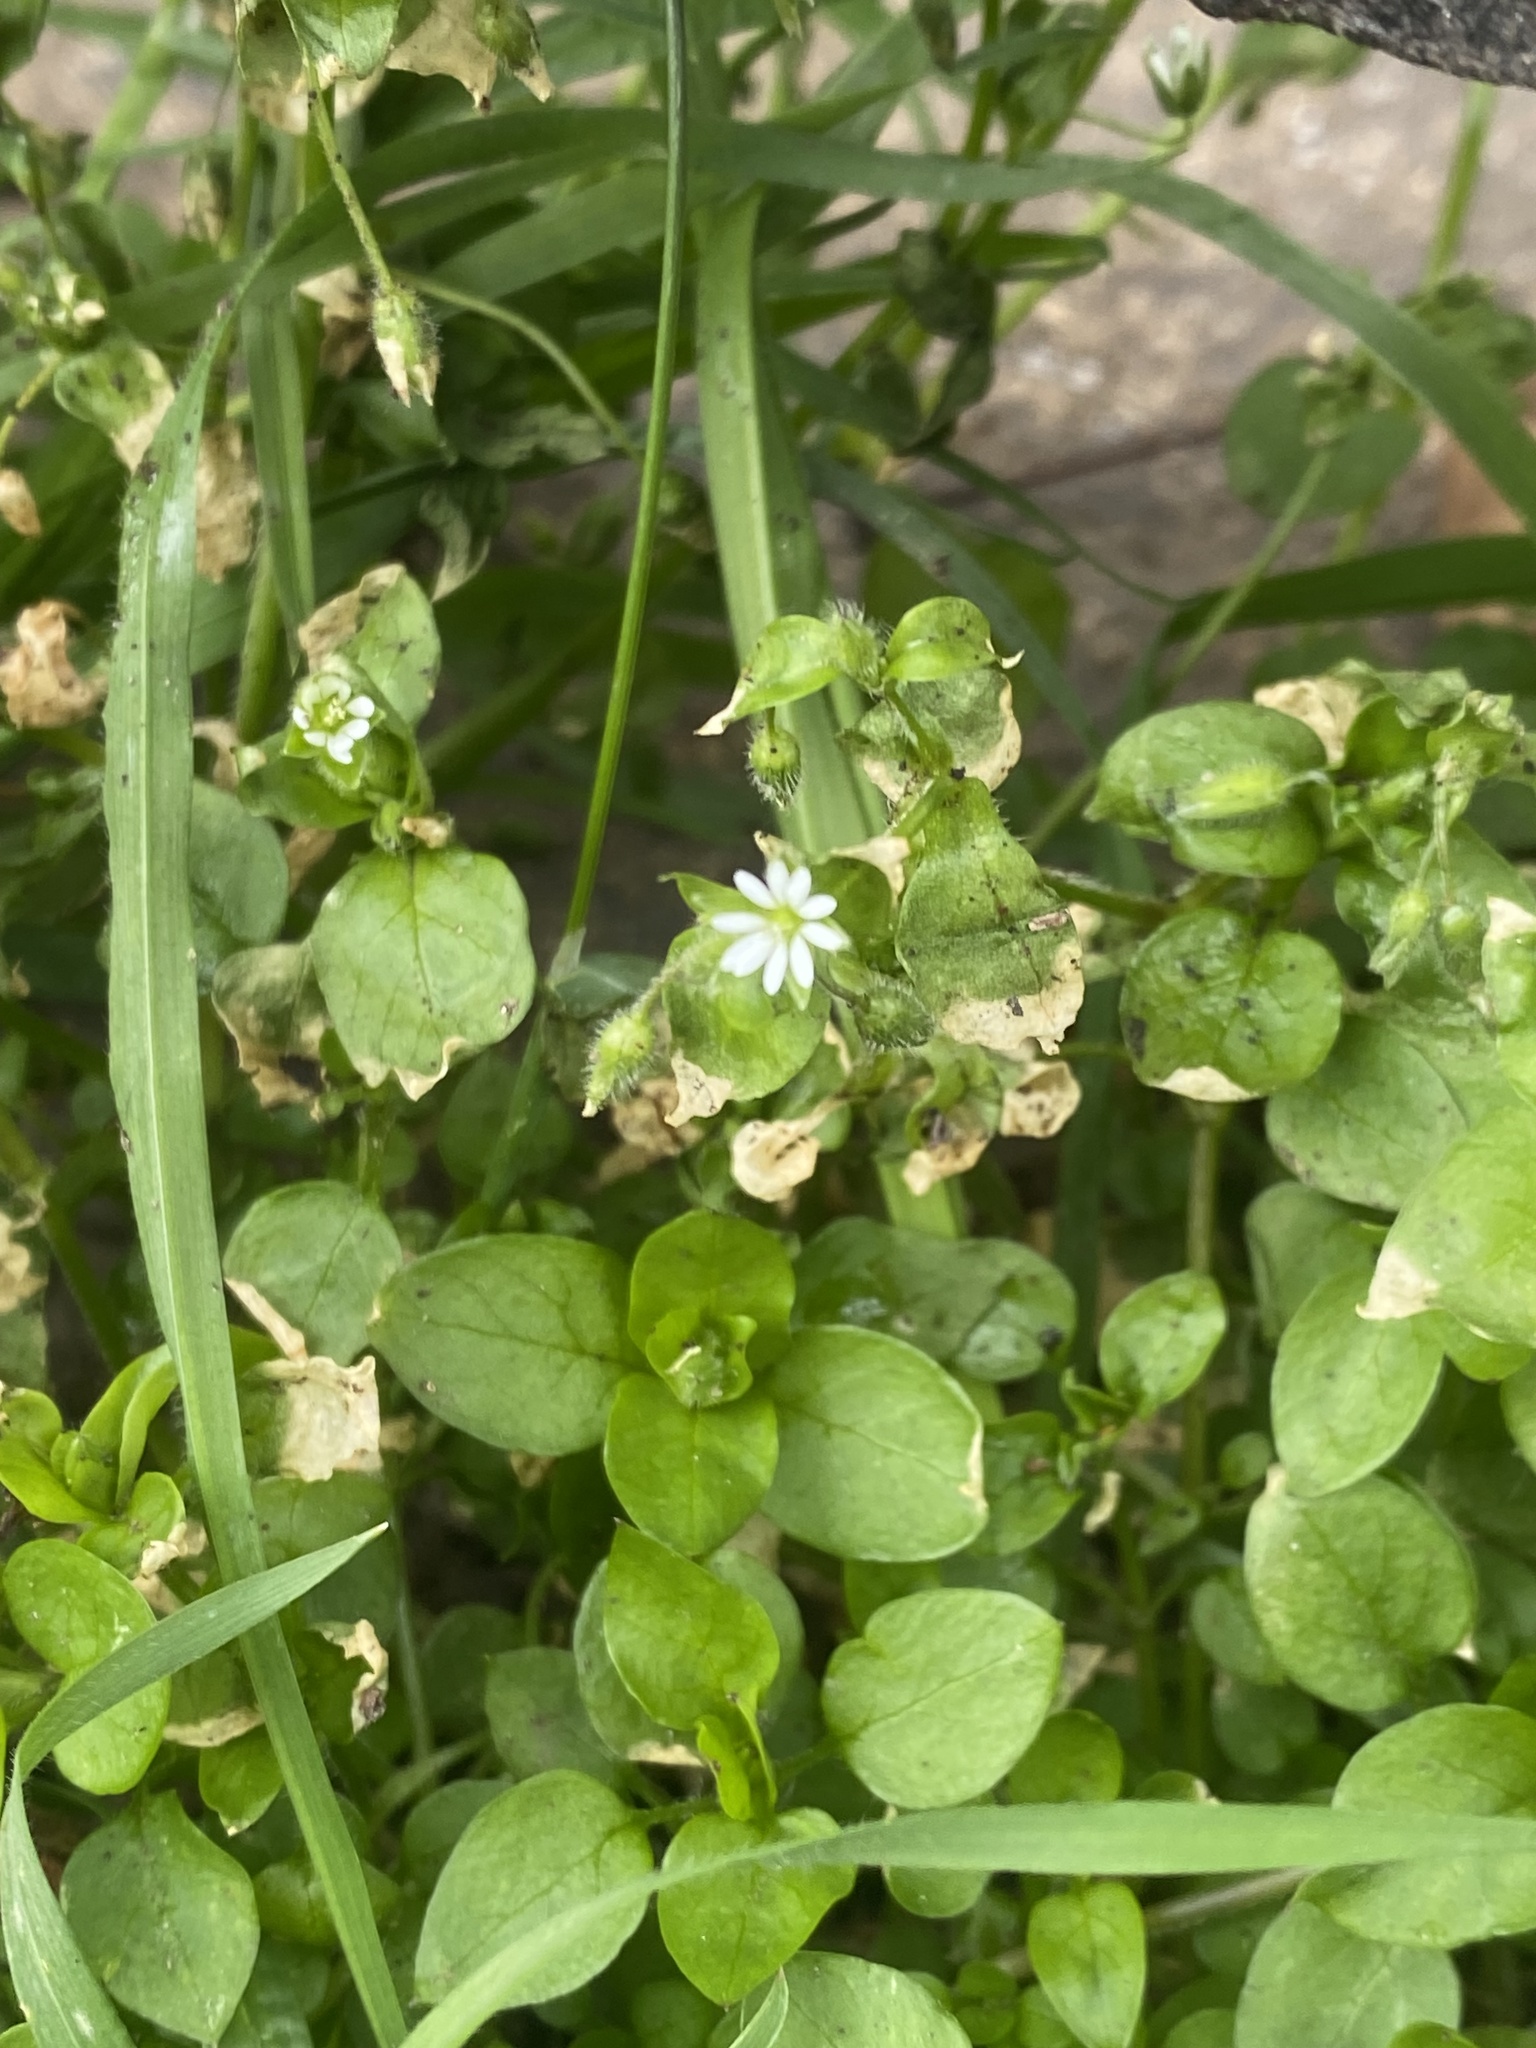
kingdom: Plantae
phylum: Tracheophyta
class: Magnoliopsida
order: Caryophyllales
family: Caryophyllaceae
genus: Stellaria
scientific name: Stellaria media
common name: Common chickweed
